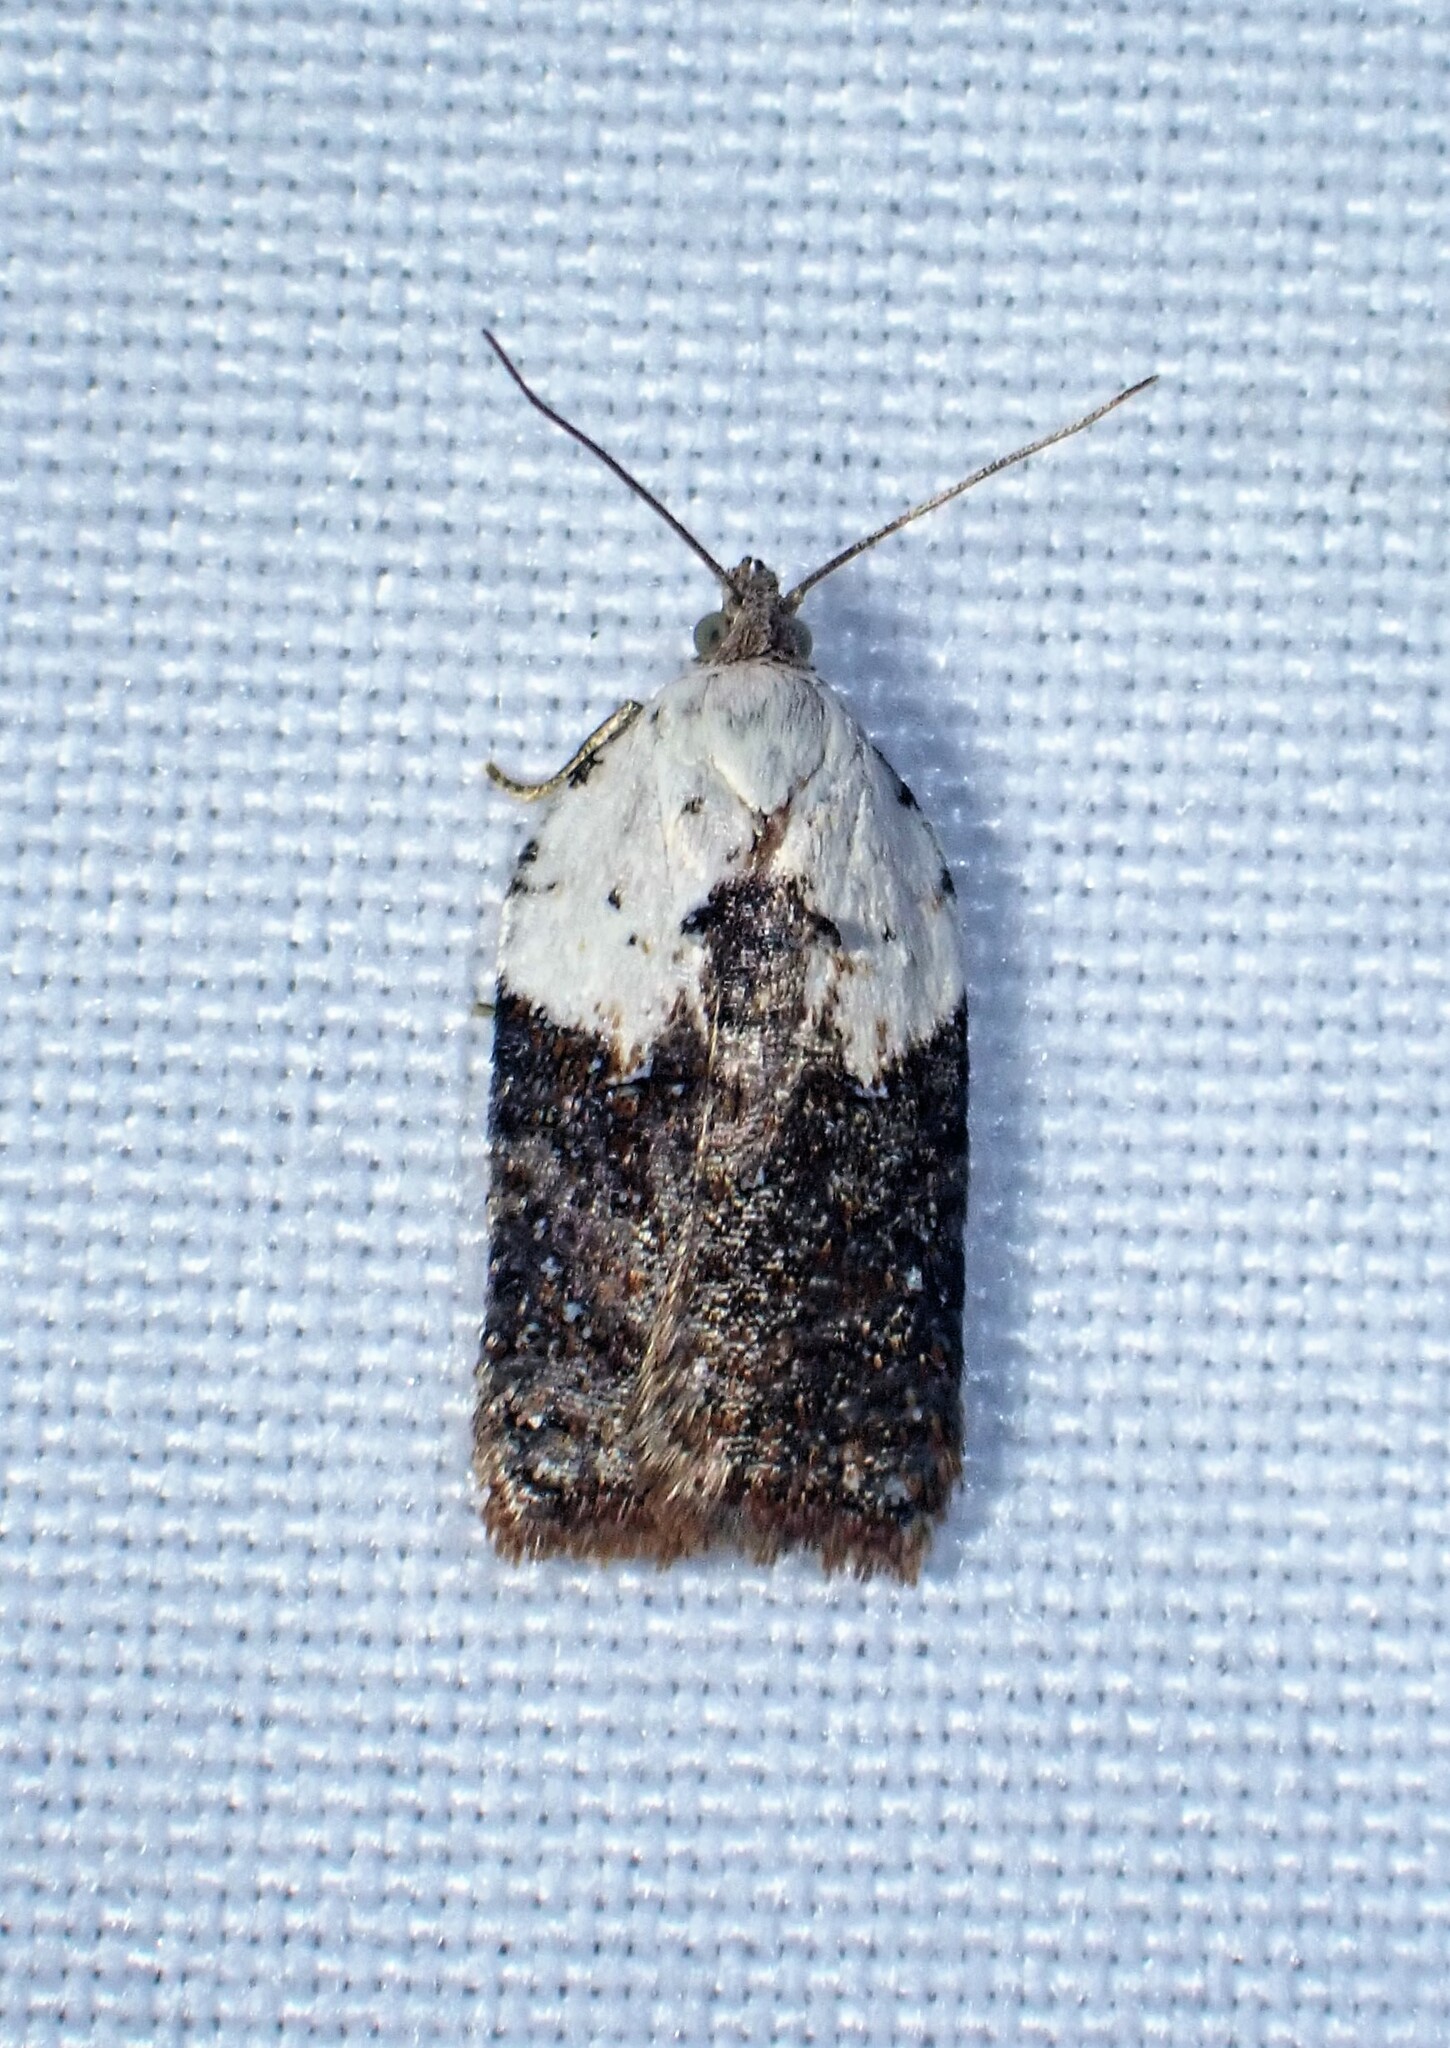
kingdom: Animalia
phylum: Arthropoda
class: Insecta
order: Lepidoptera
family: Tortricidae
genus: Acleris
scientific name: Acleris braunana
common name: Alder leafroller
